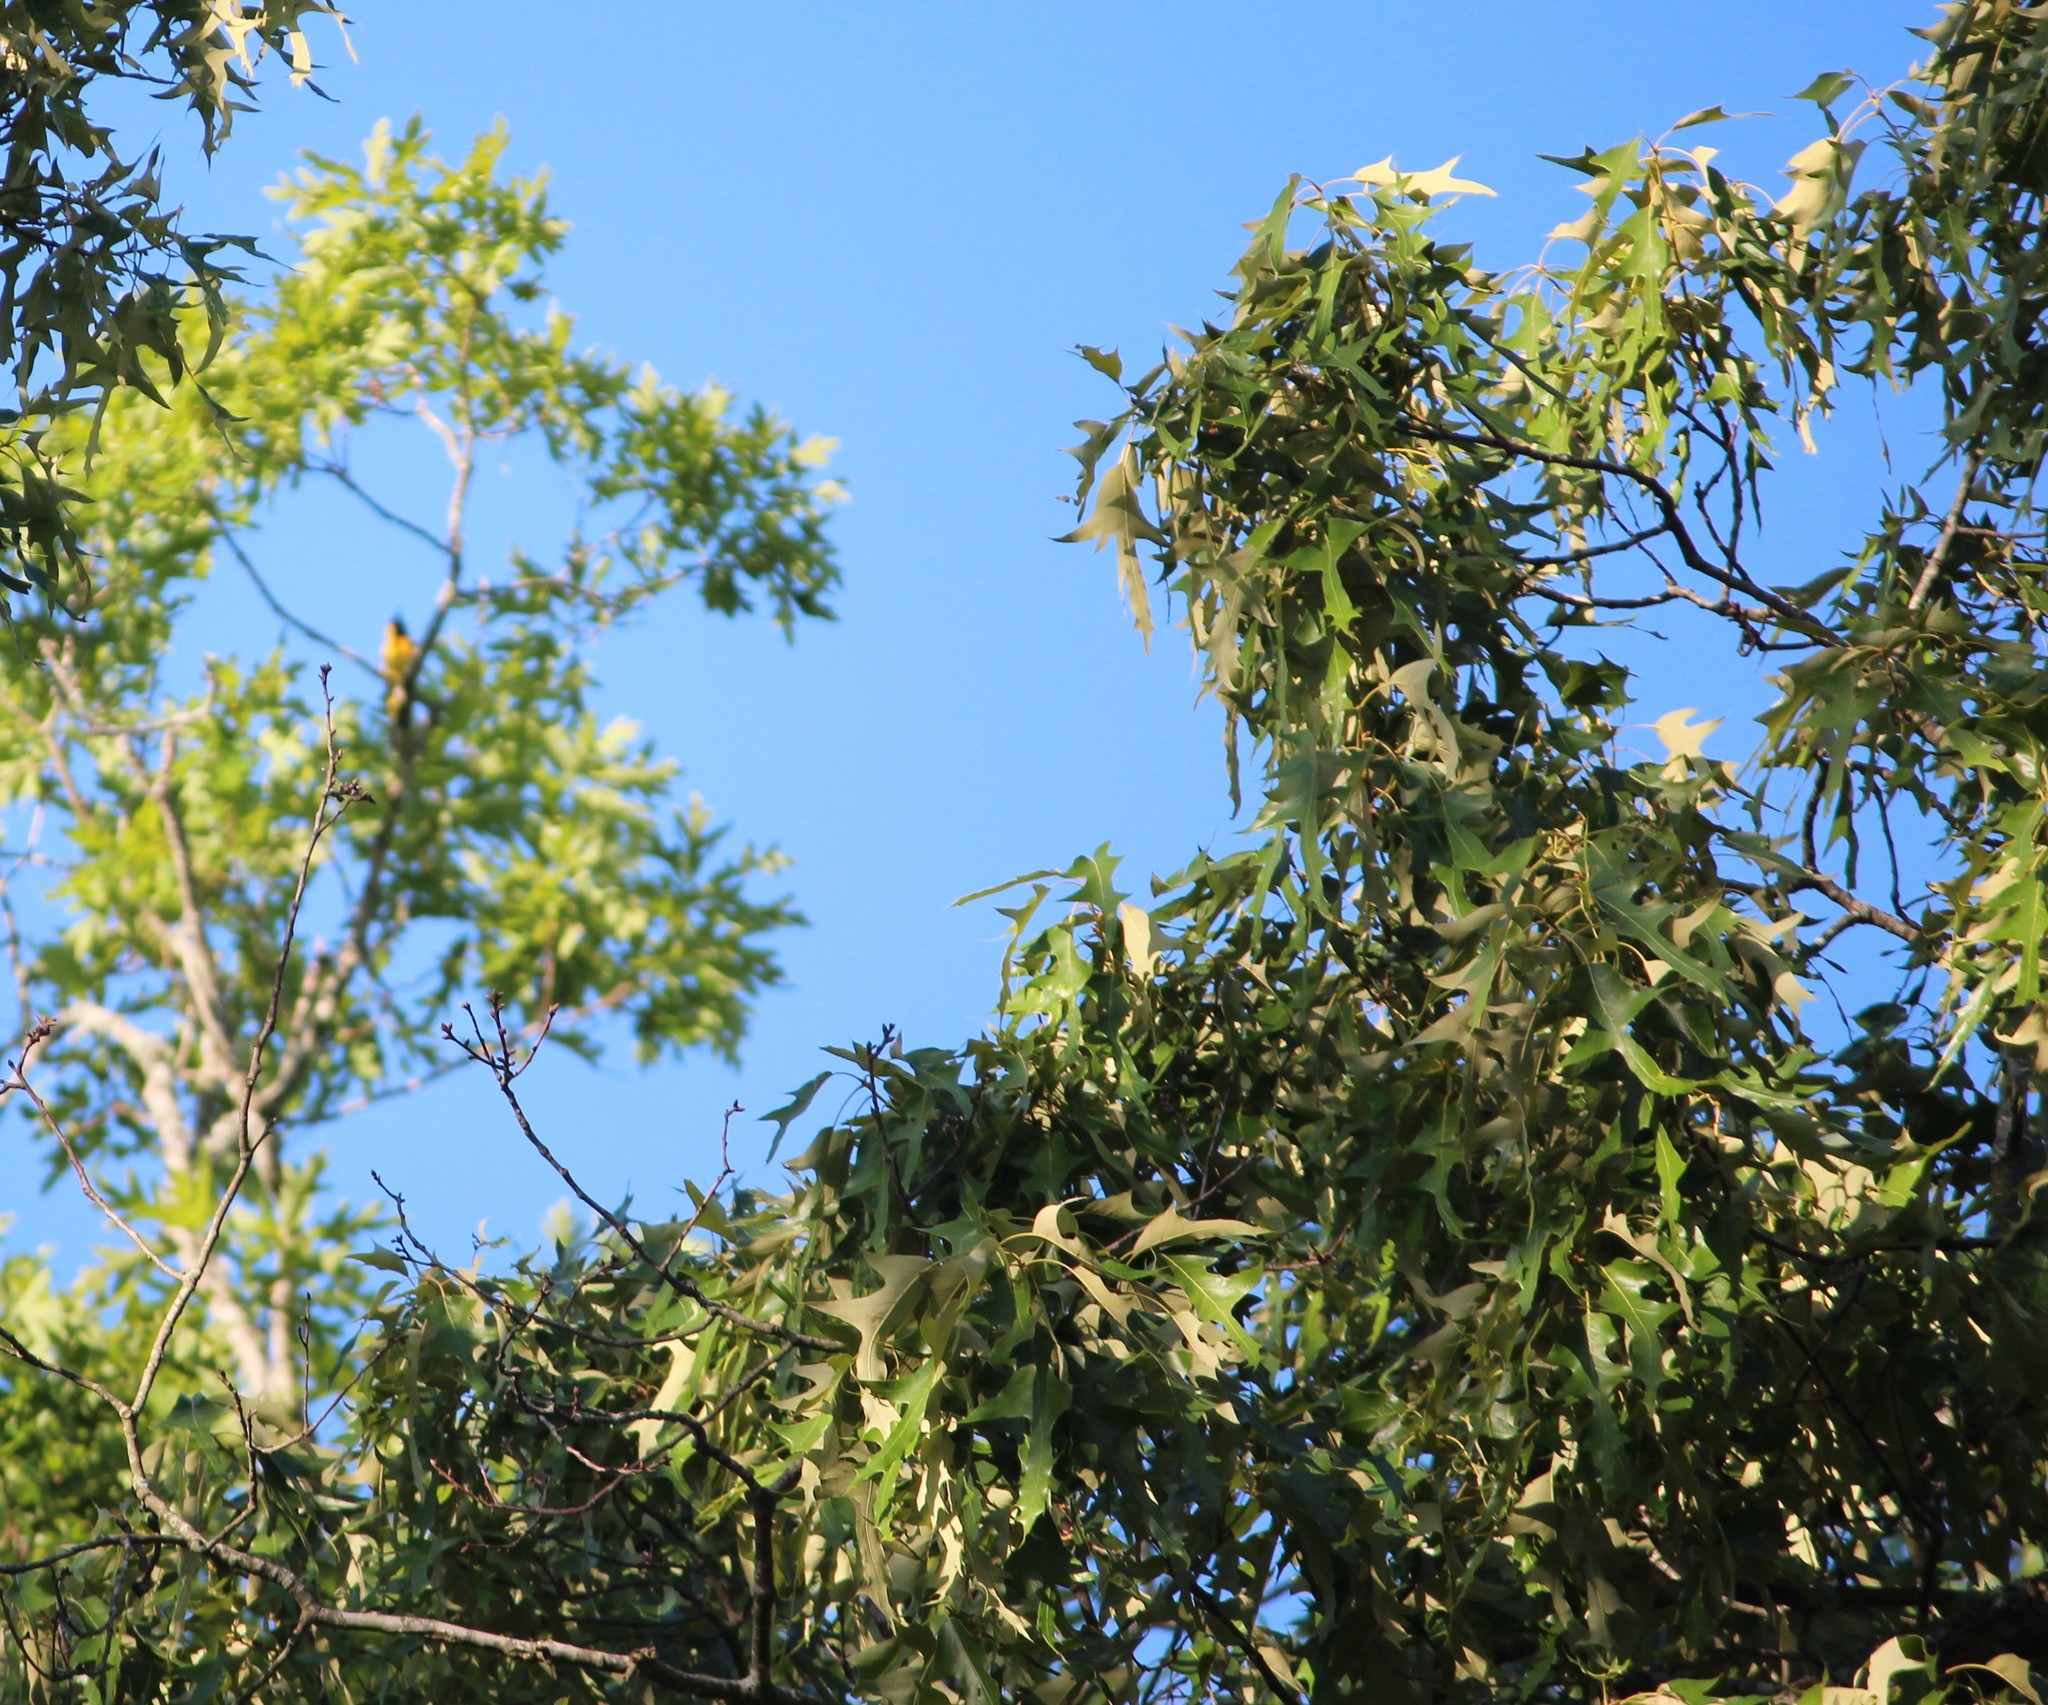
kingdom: Plantae
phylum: Tracheophyta
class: Magnoliopsida
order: Fagales
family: Fagaceae
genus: Quercus
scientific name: Quercus falcata
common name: Southern red oak
